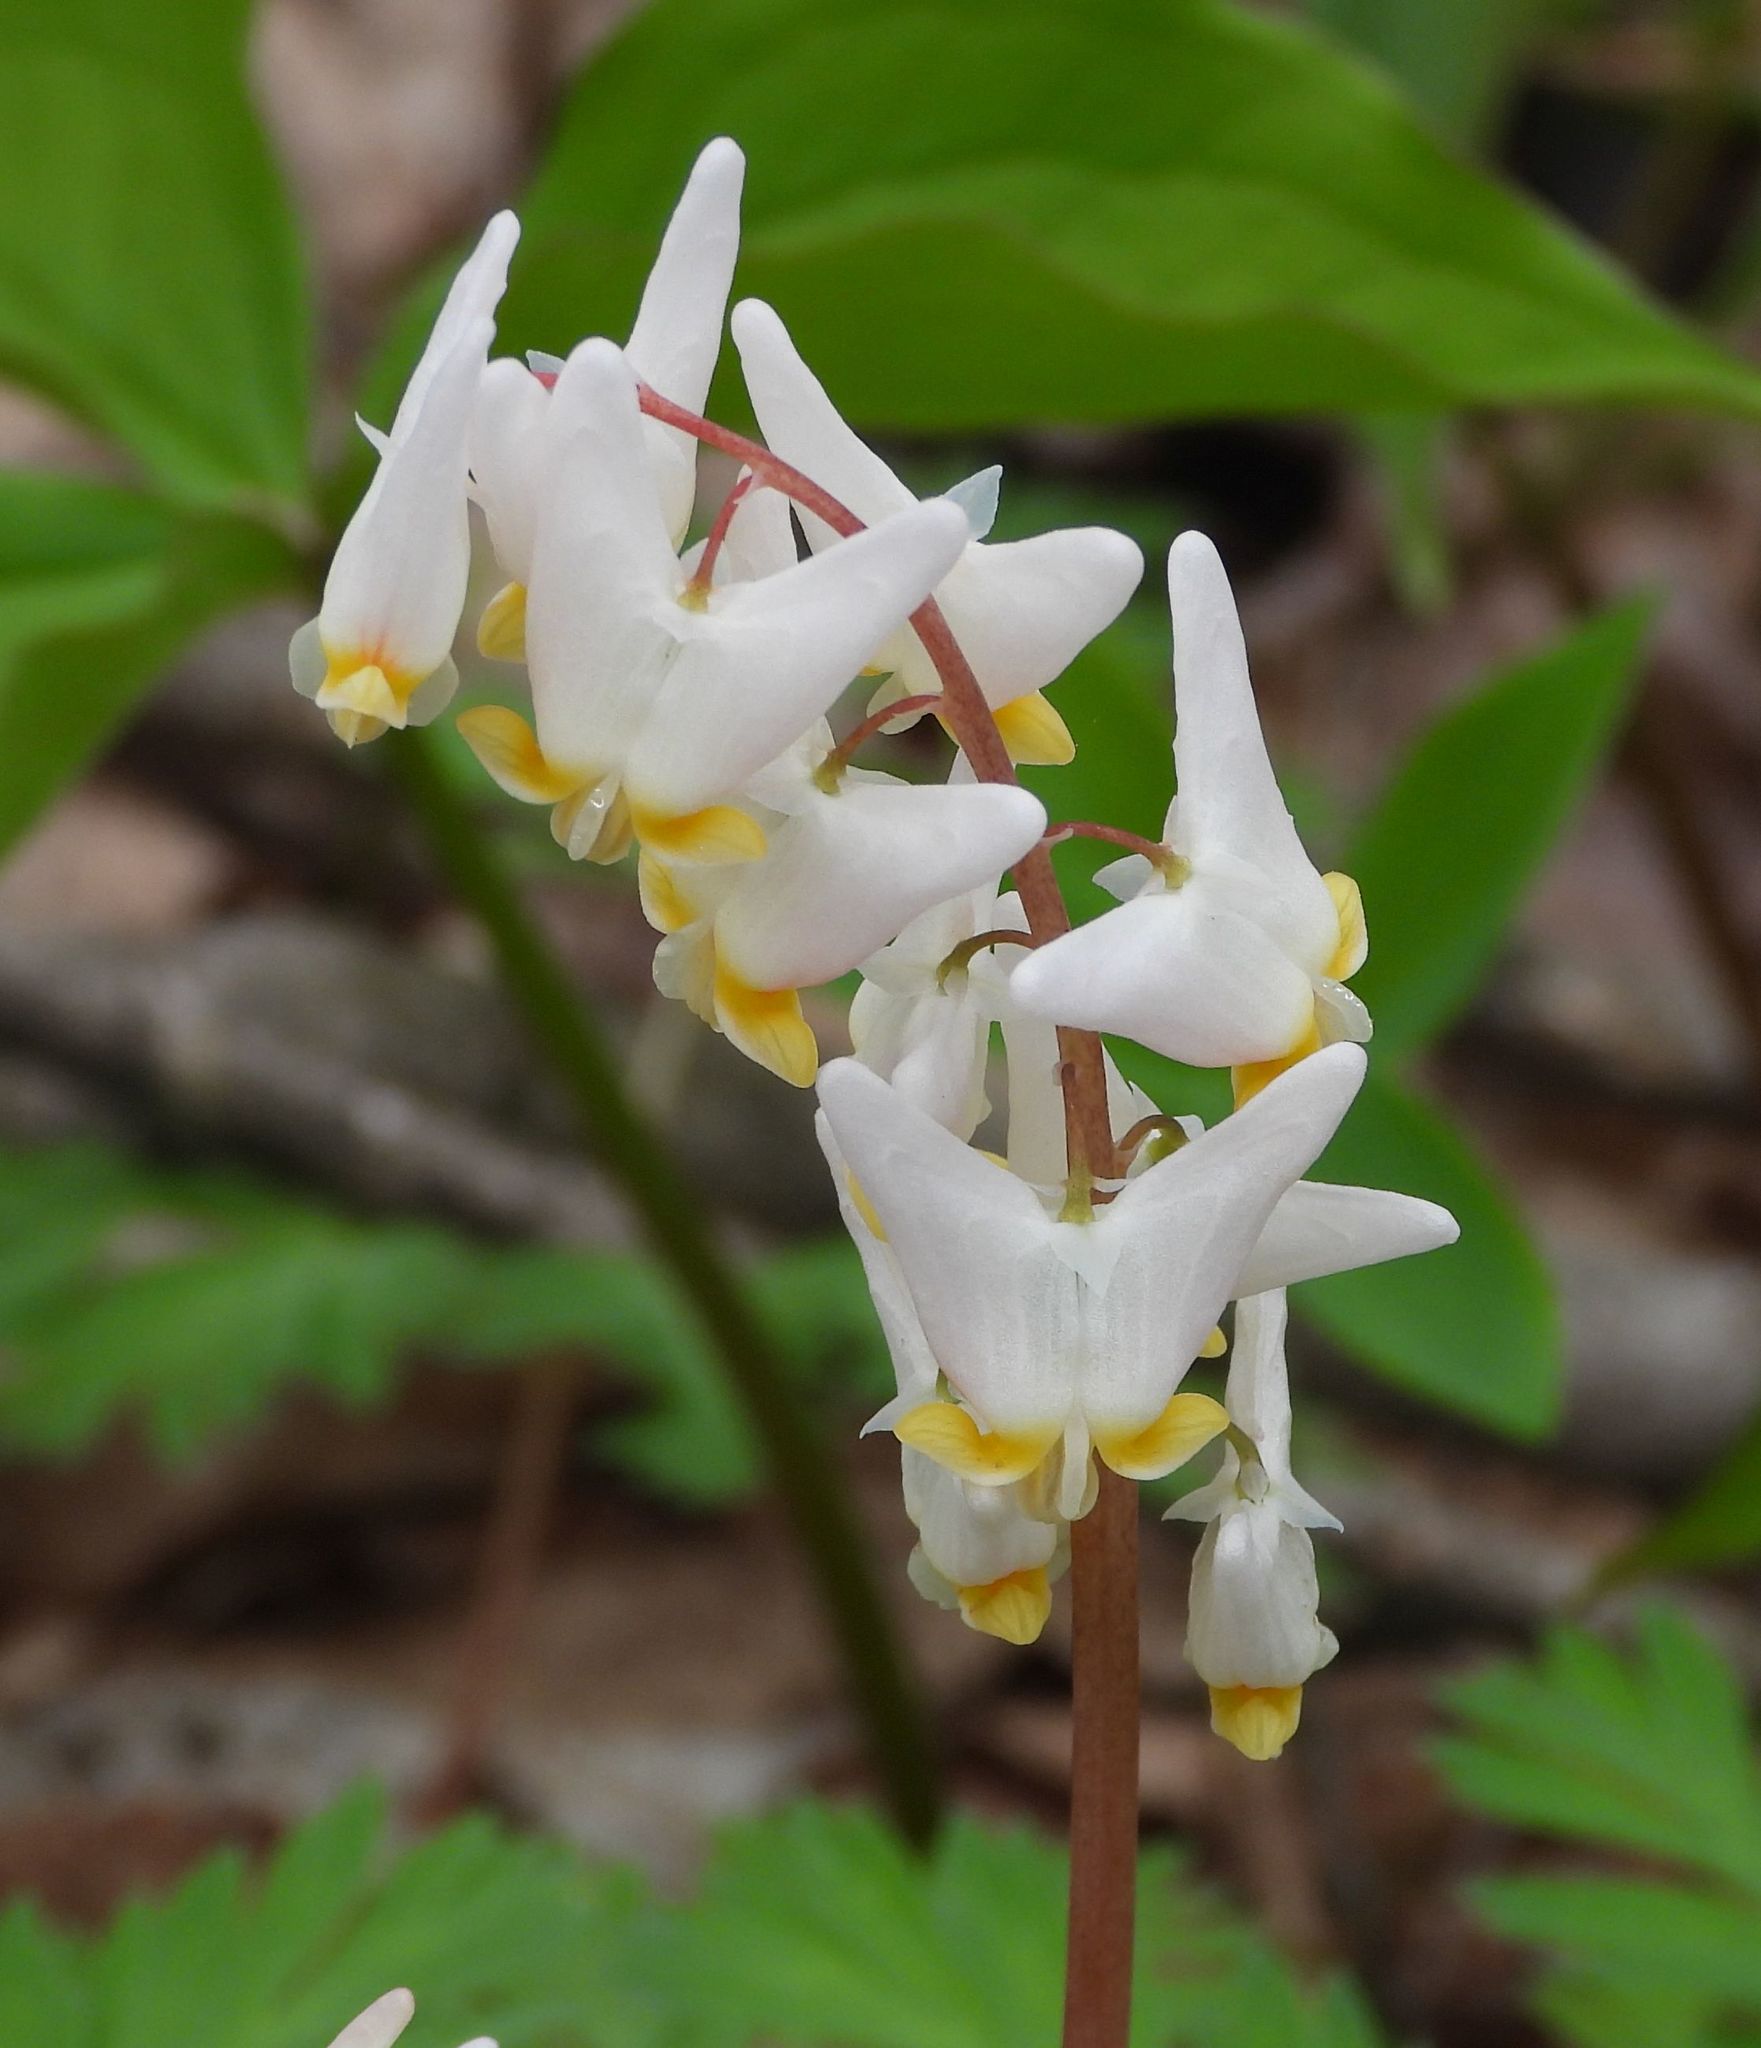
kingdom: Plantae
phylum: Tracheophyta
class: Magnoliopsida
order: Ranunculales
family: Papaveraceae
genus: Dicentra
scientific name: Dicentra cucullaria
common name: Dutchman's breeches
